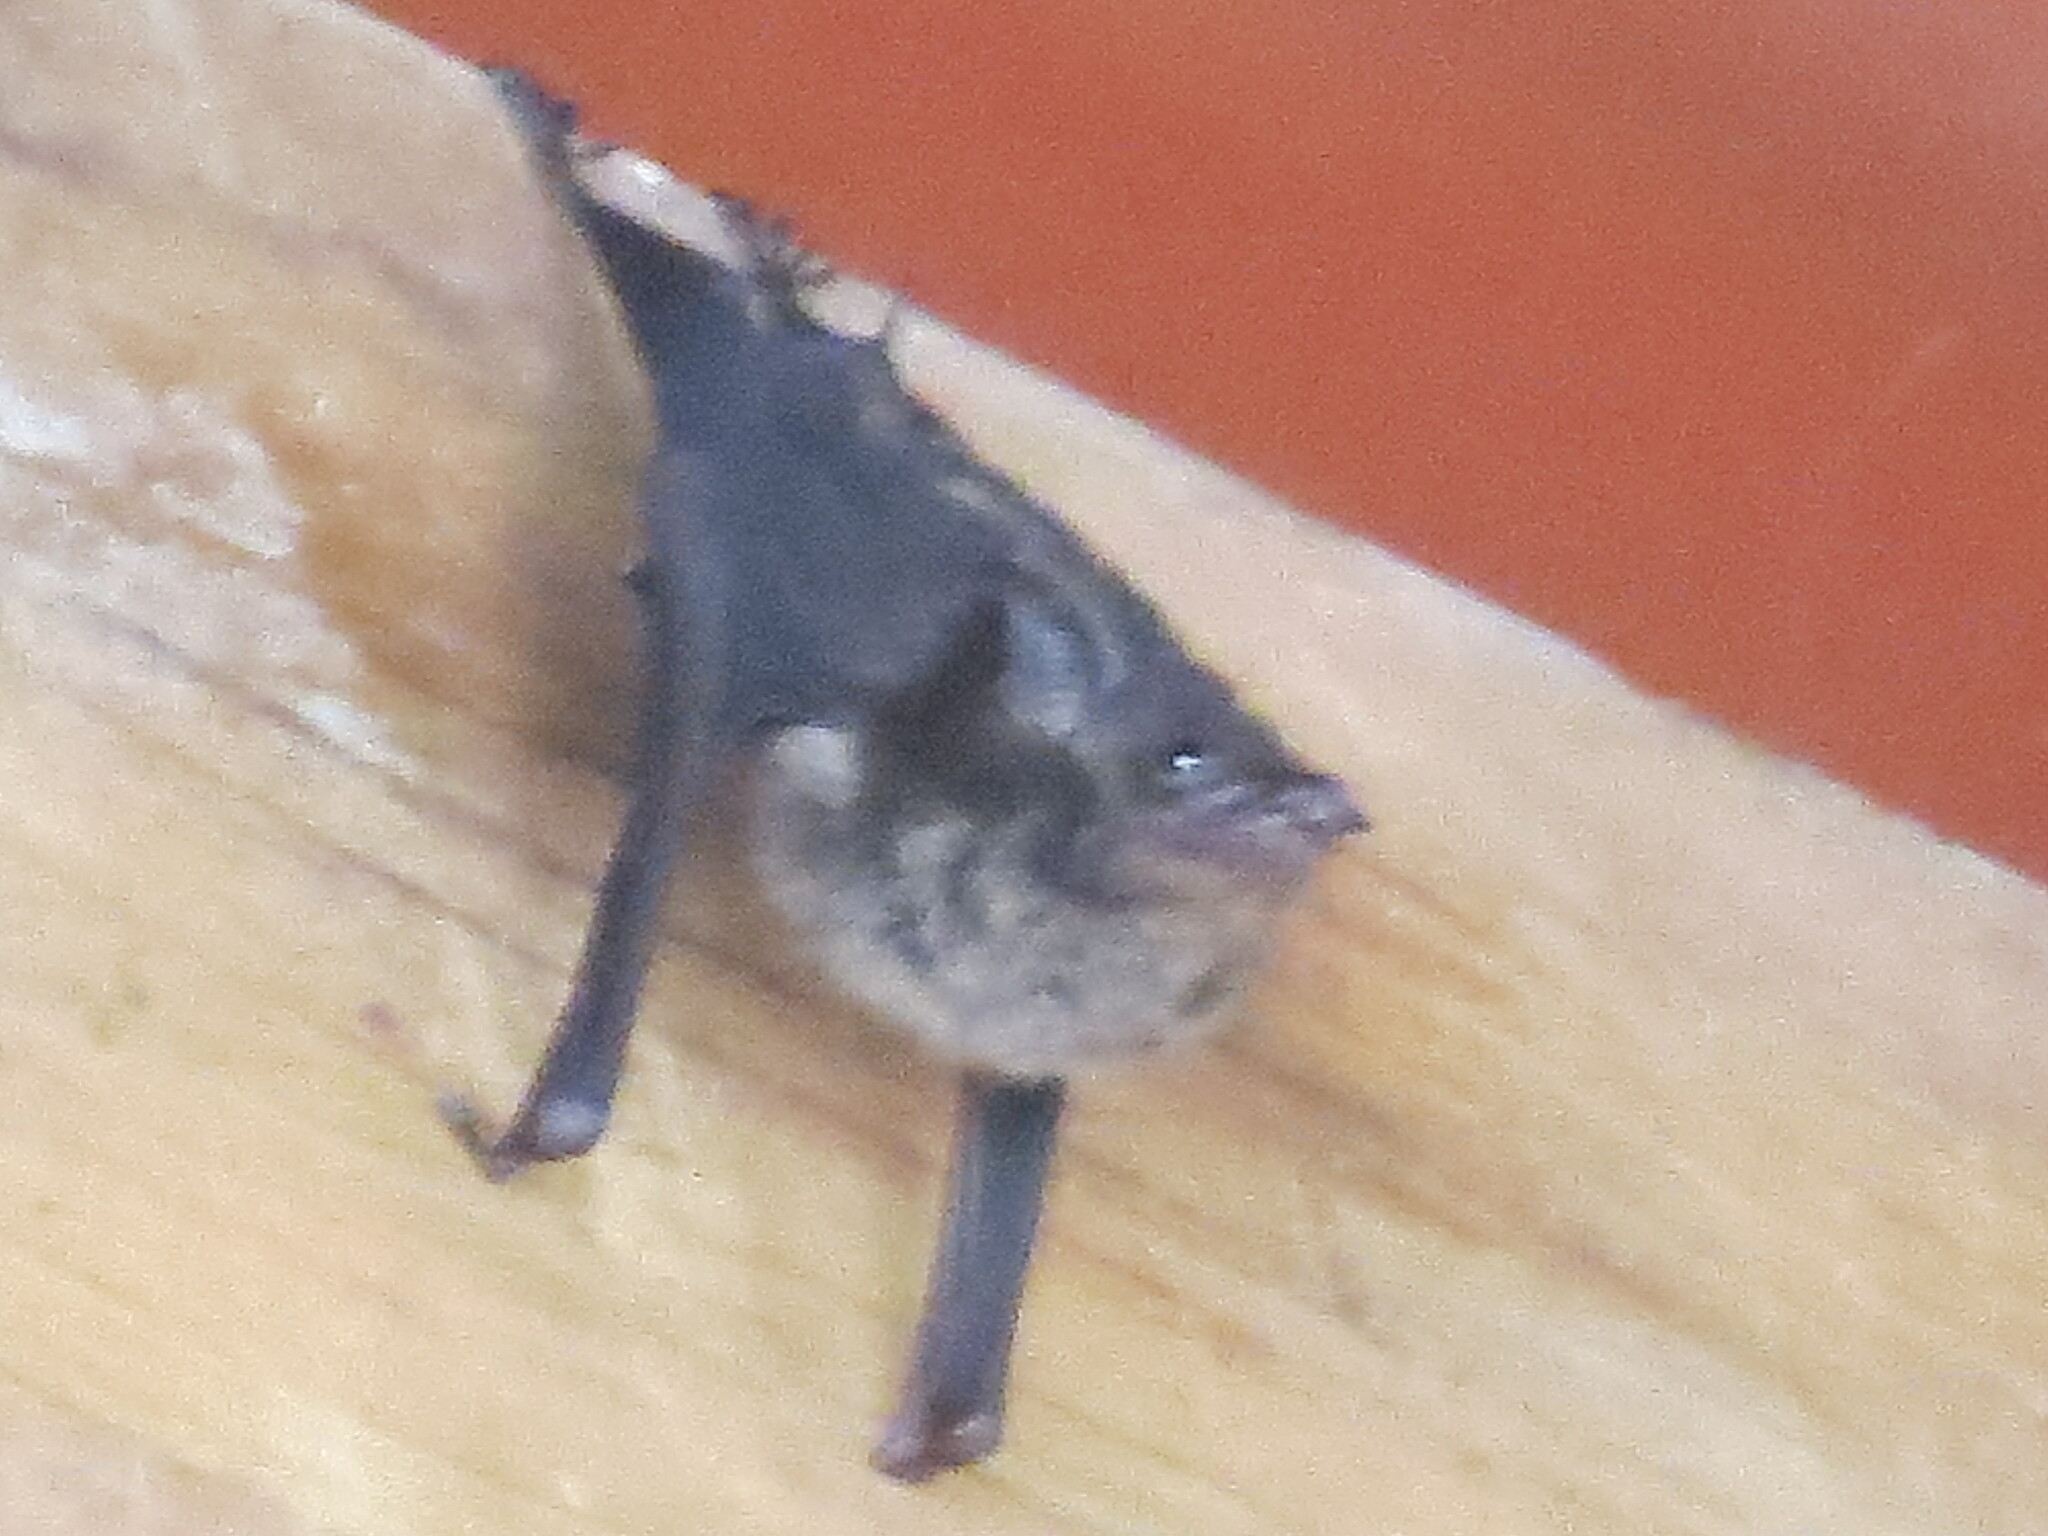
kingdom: Animalia
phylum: Chordata
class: Mammalia
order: Chiroptera
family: Emballonuridae
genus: Saccopteryx
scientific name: Saccopteryx bilineata
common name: Greater sac-winged bat
